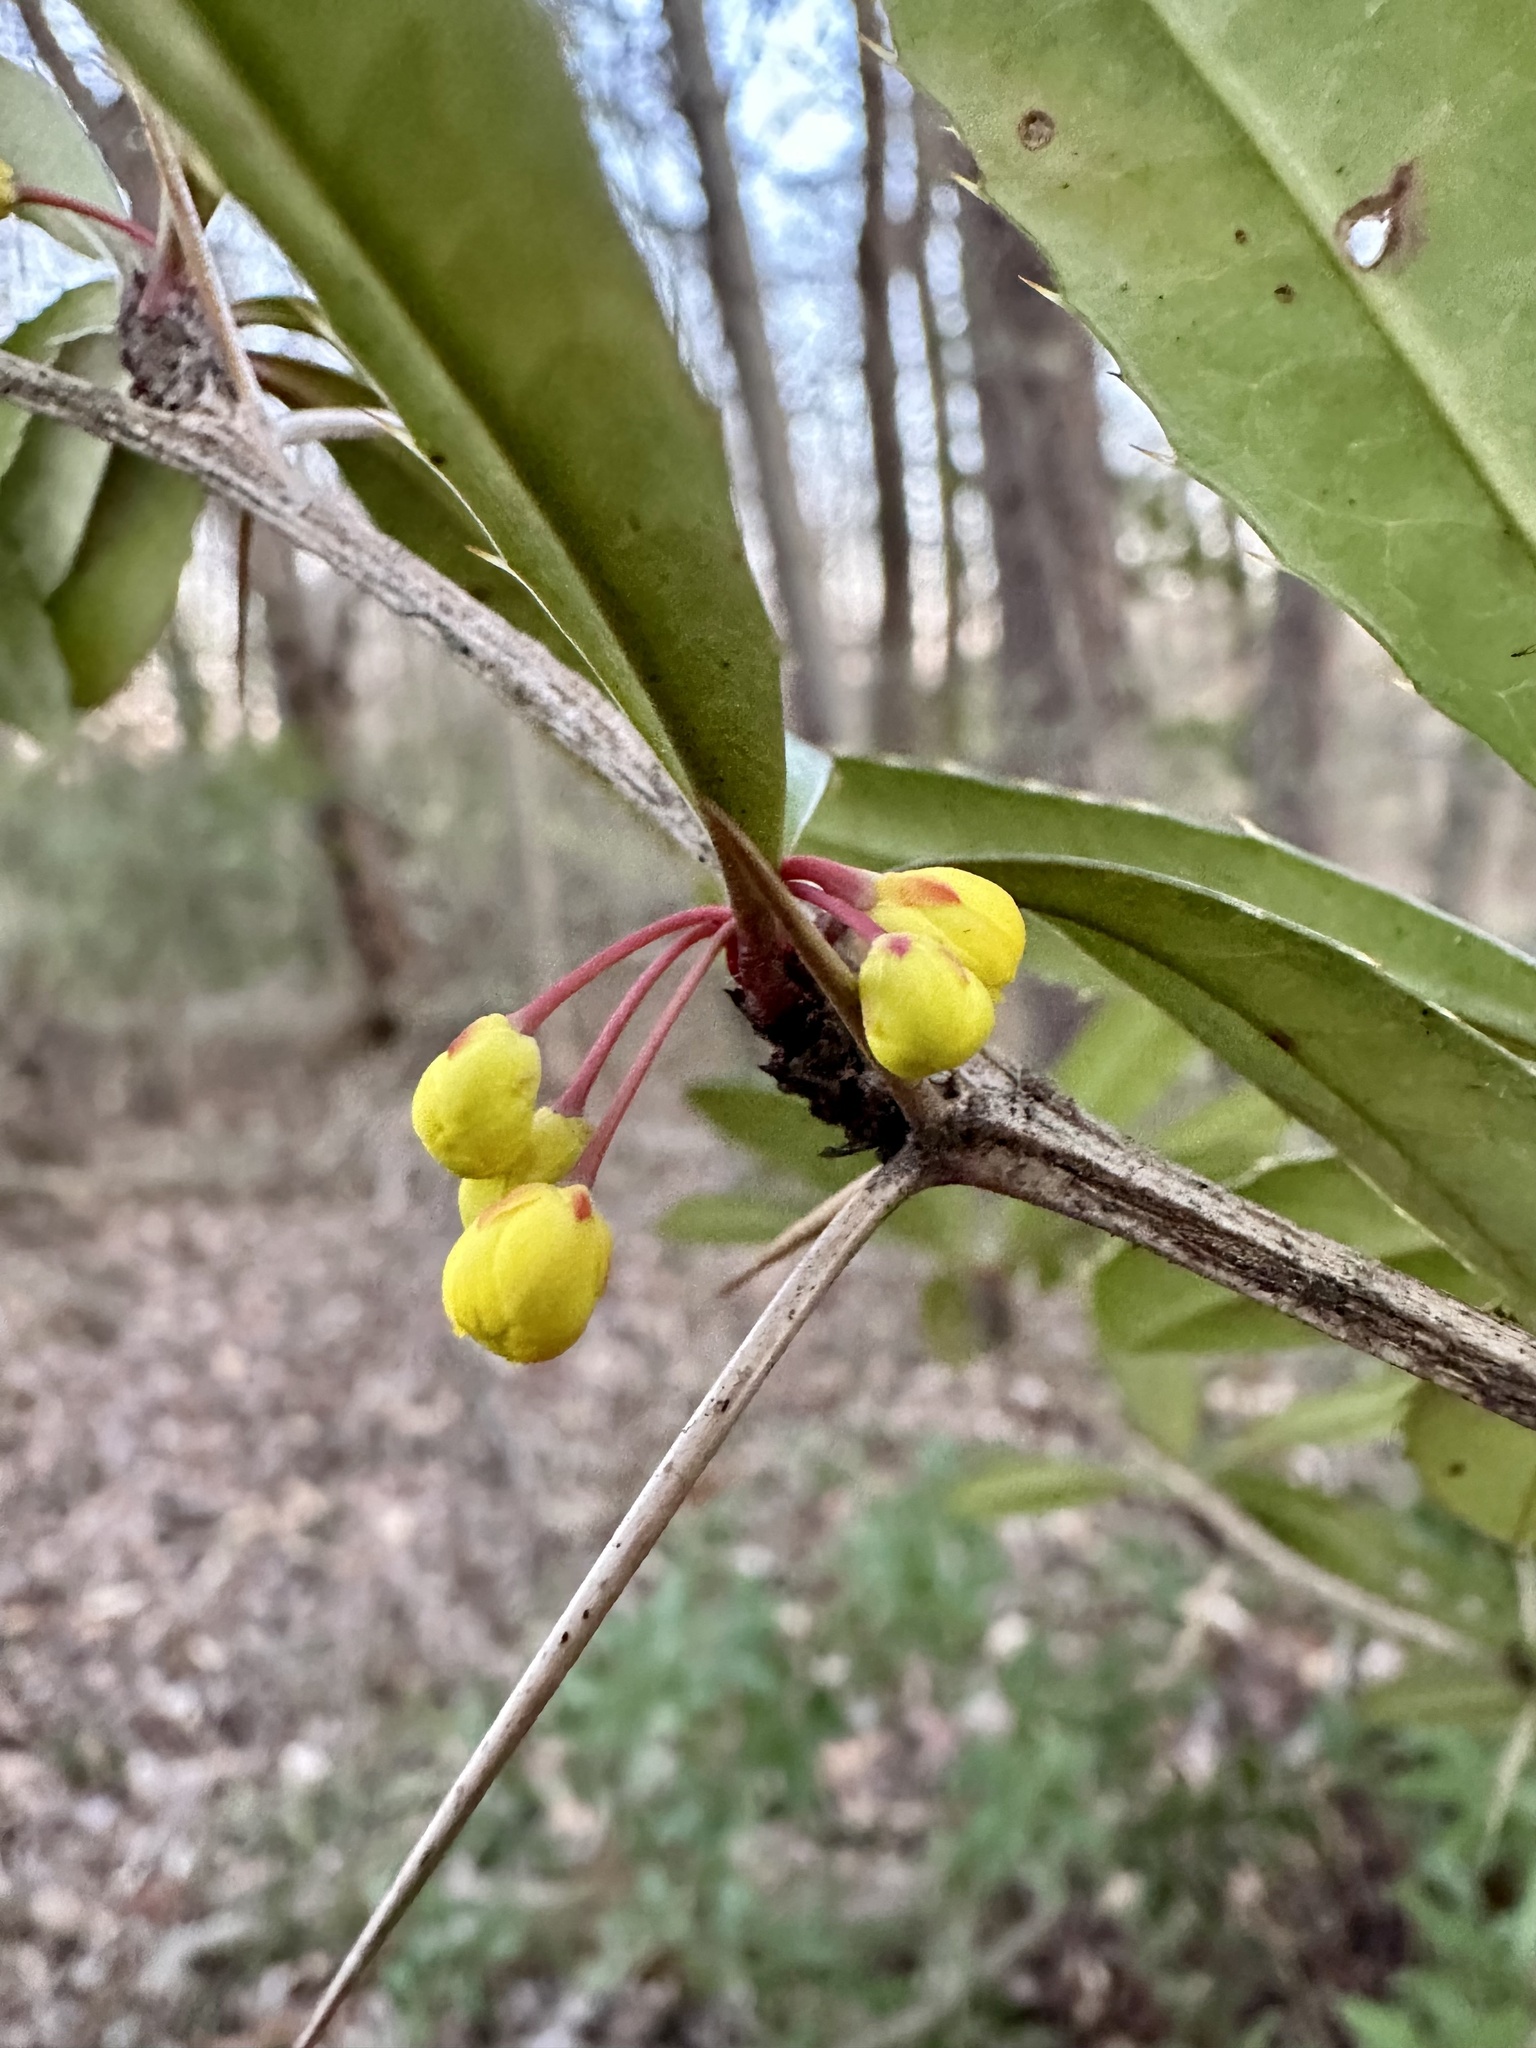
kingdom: Plantae
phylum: Tracheophyta
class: Magnoliopsida
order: Ranunculales
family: Berberidaceae
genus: Berberis
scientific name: Berberis julianae
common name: Wintergreen barberry
